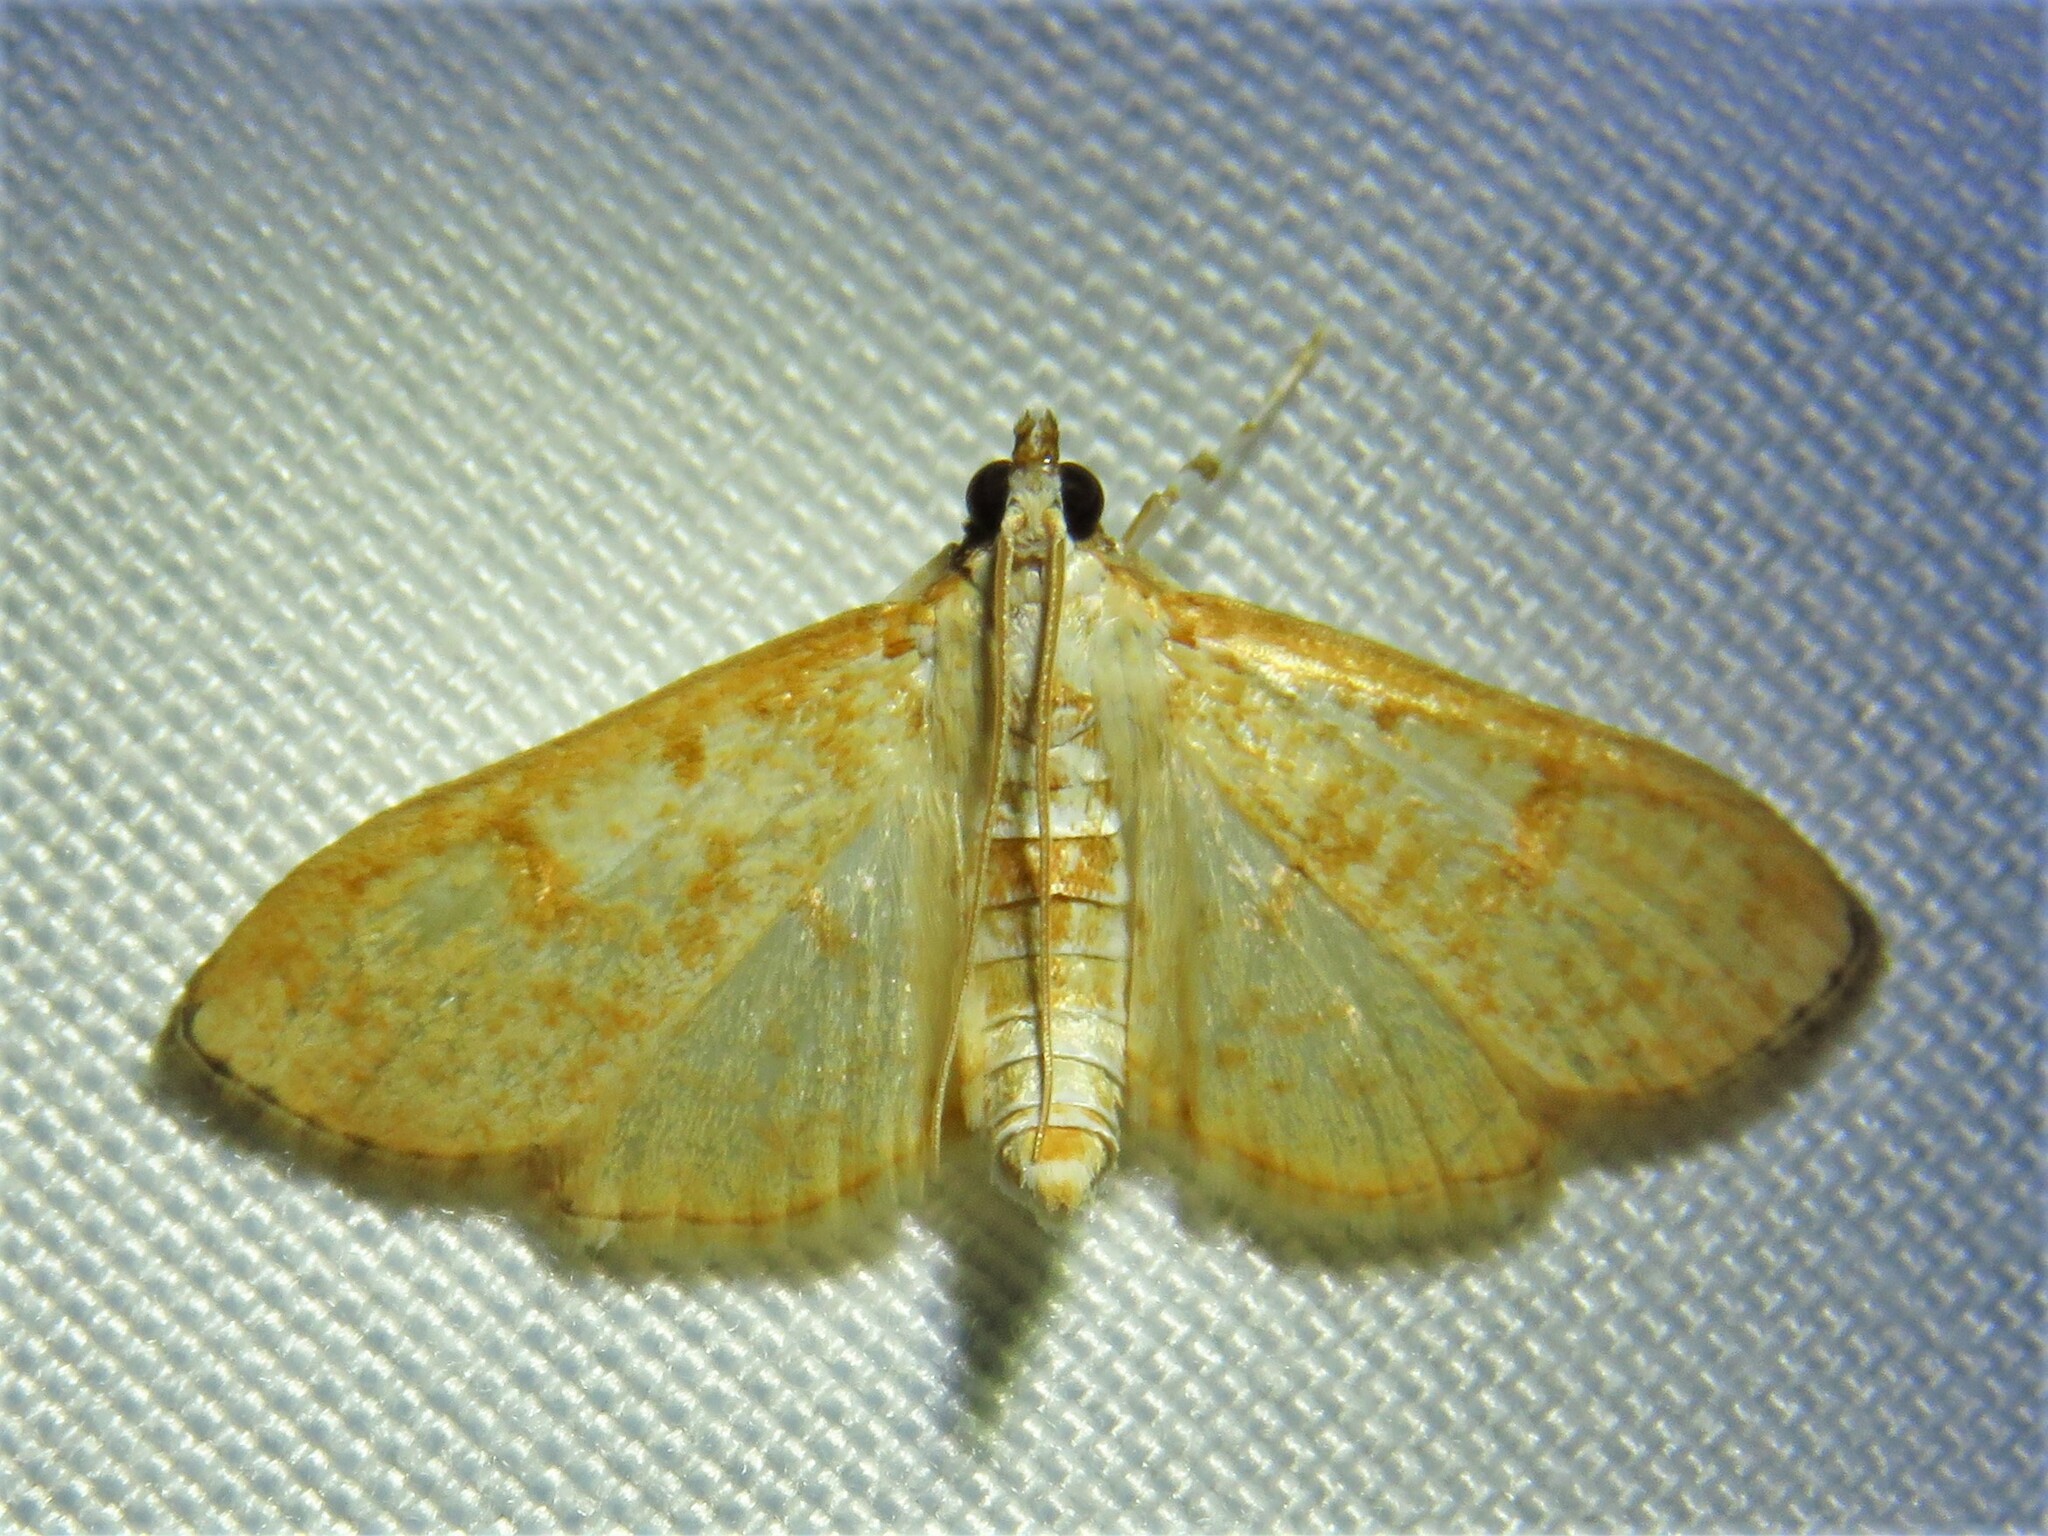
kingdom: Animalia
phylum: Arthropoda
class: Insecta
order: Lepidoptera
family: Crambidae
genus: Palpita
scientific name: Palpita freemanalis
